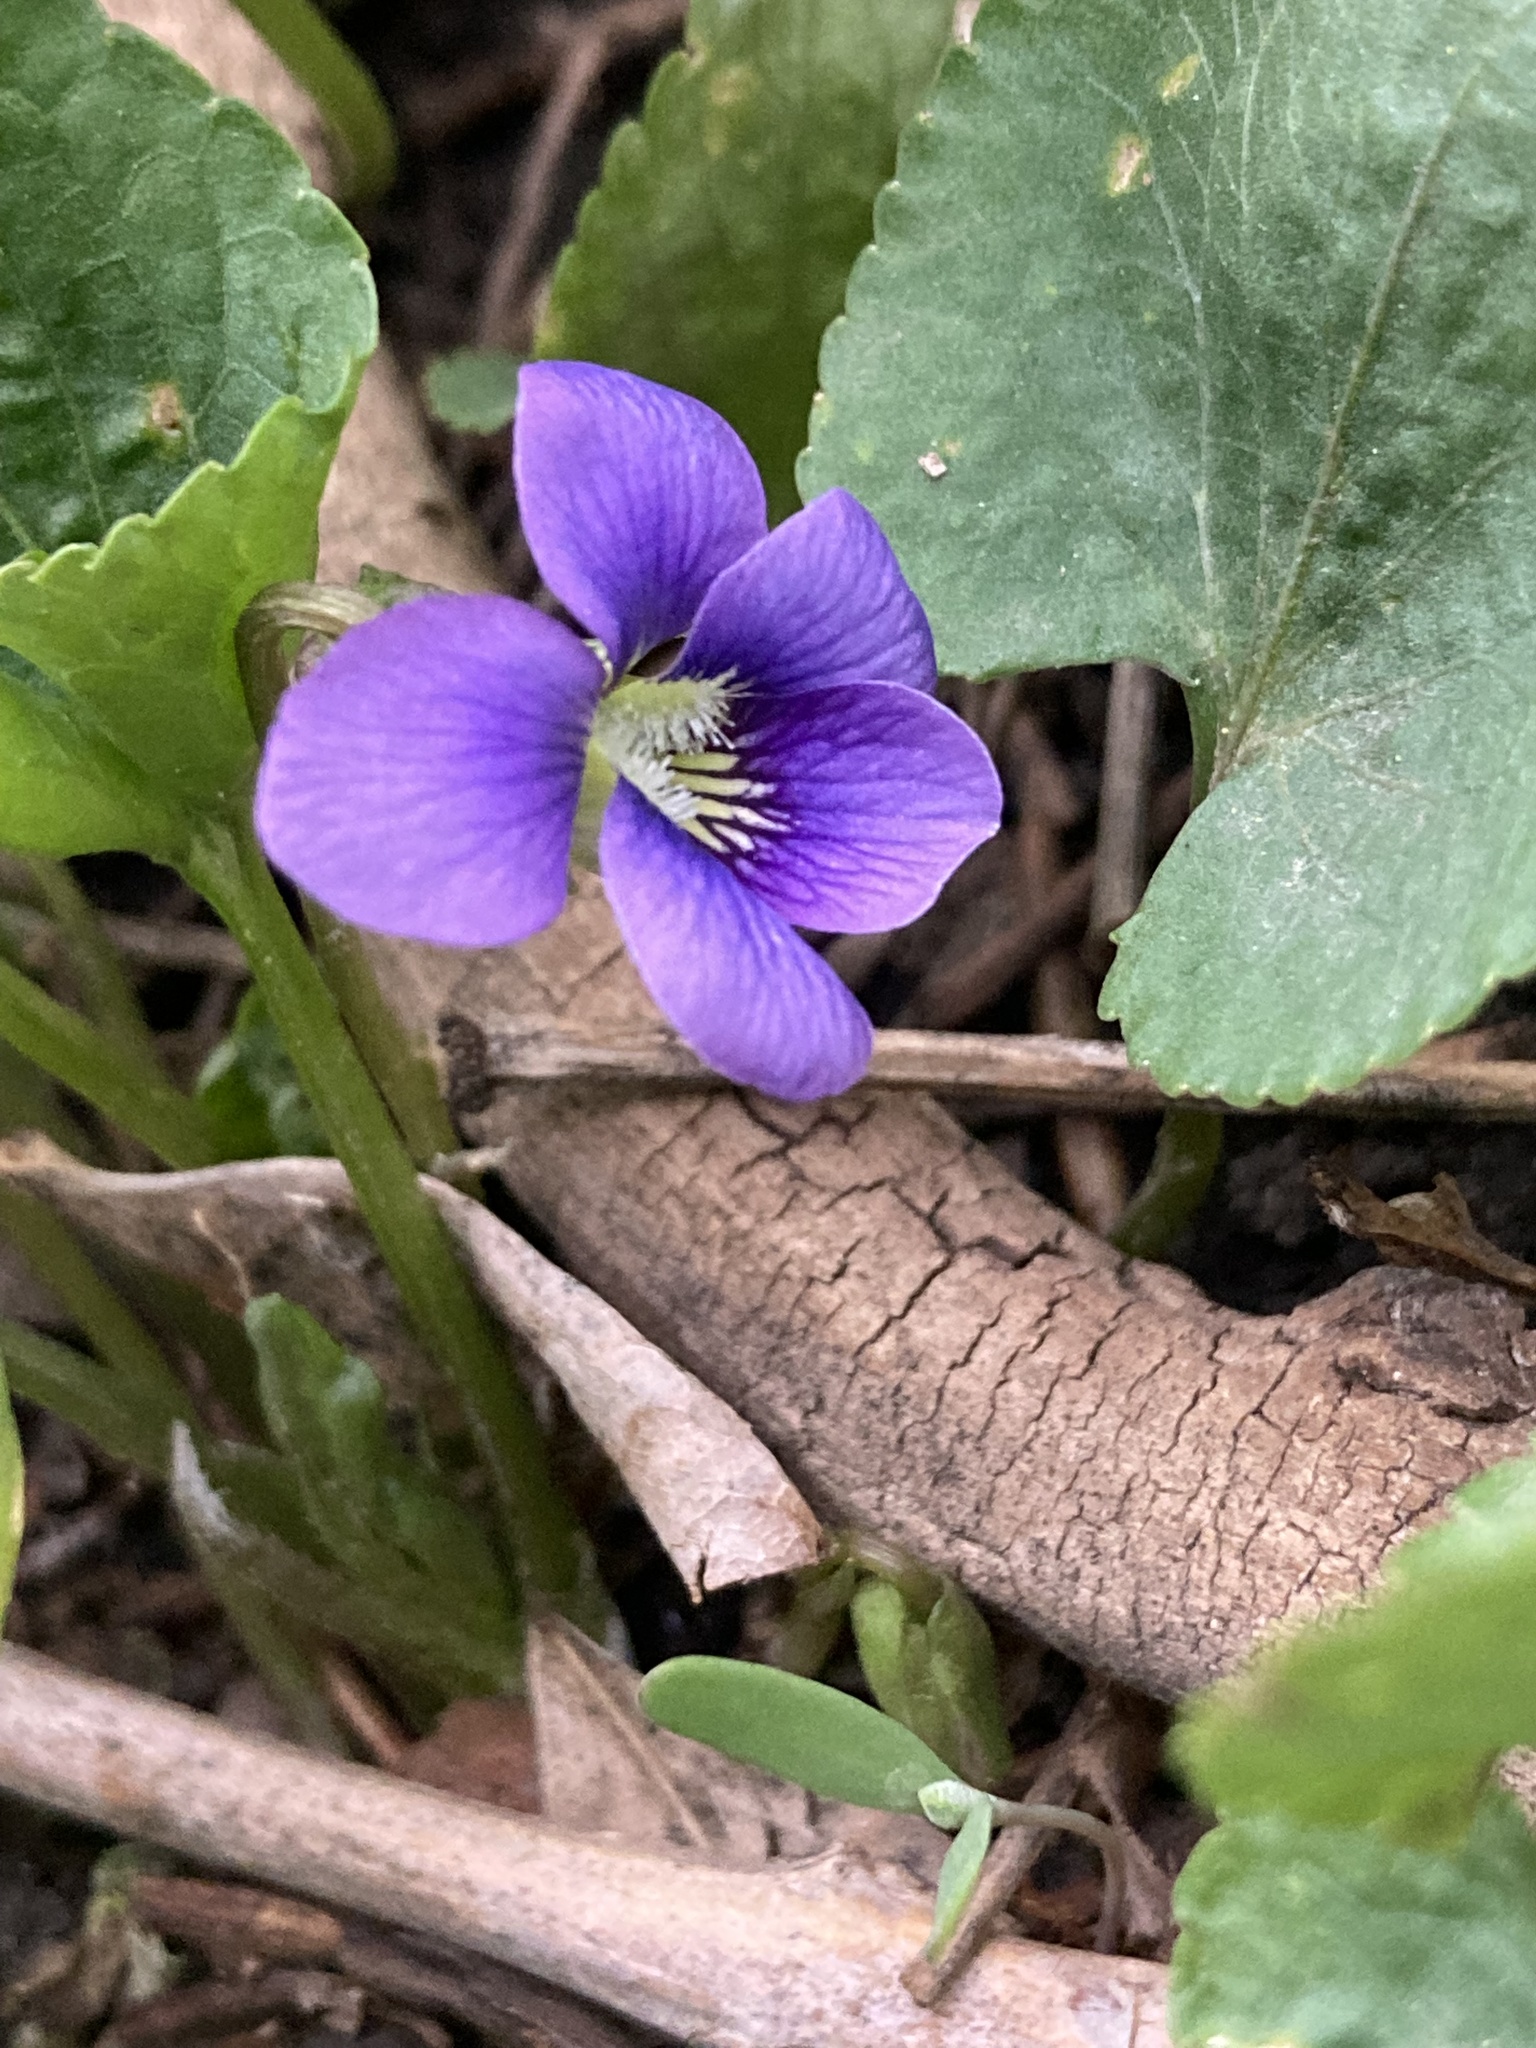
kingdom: Plantae
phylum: Tracheophyta
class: Magnoliopsida
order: Malpighiales
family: Violaceae
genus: Viola
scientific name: Viola sororia
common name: Dooryard violet
